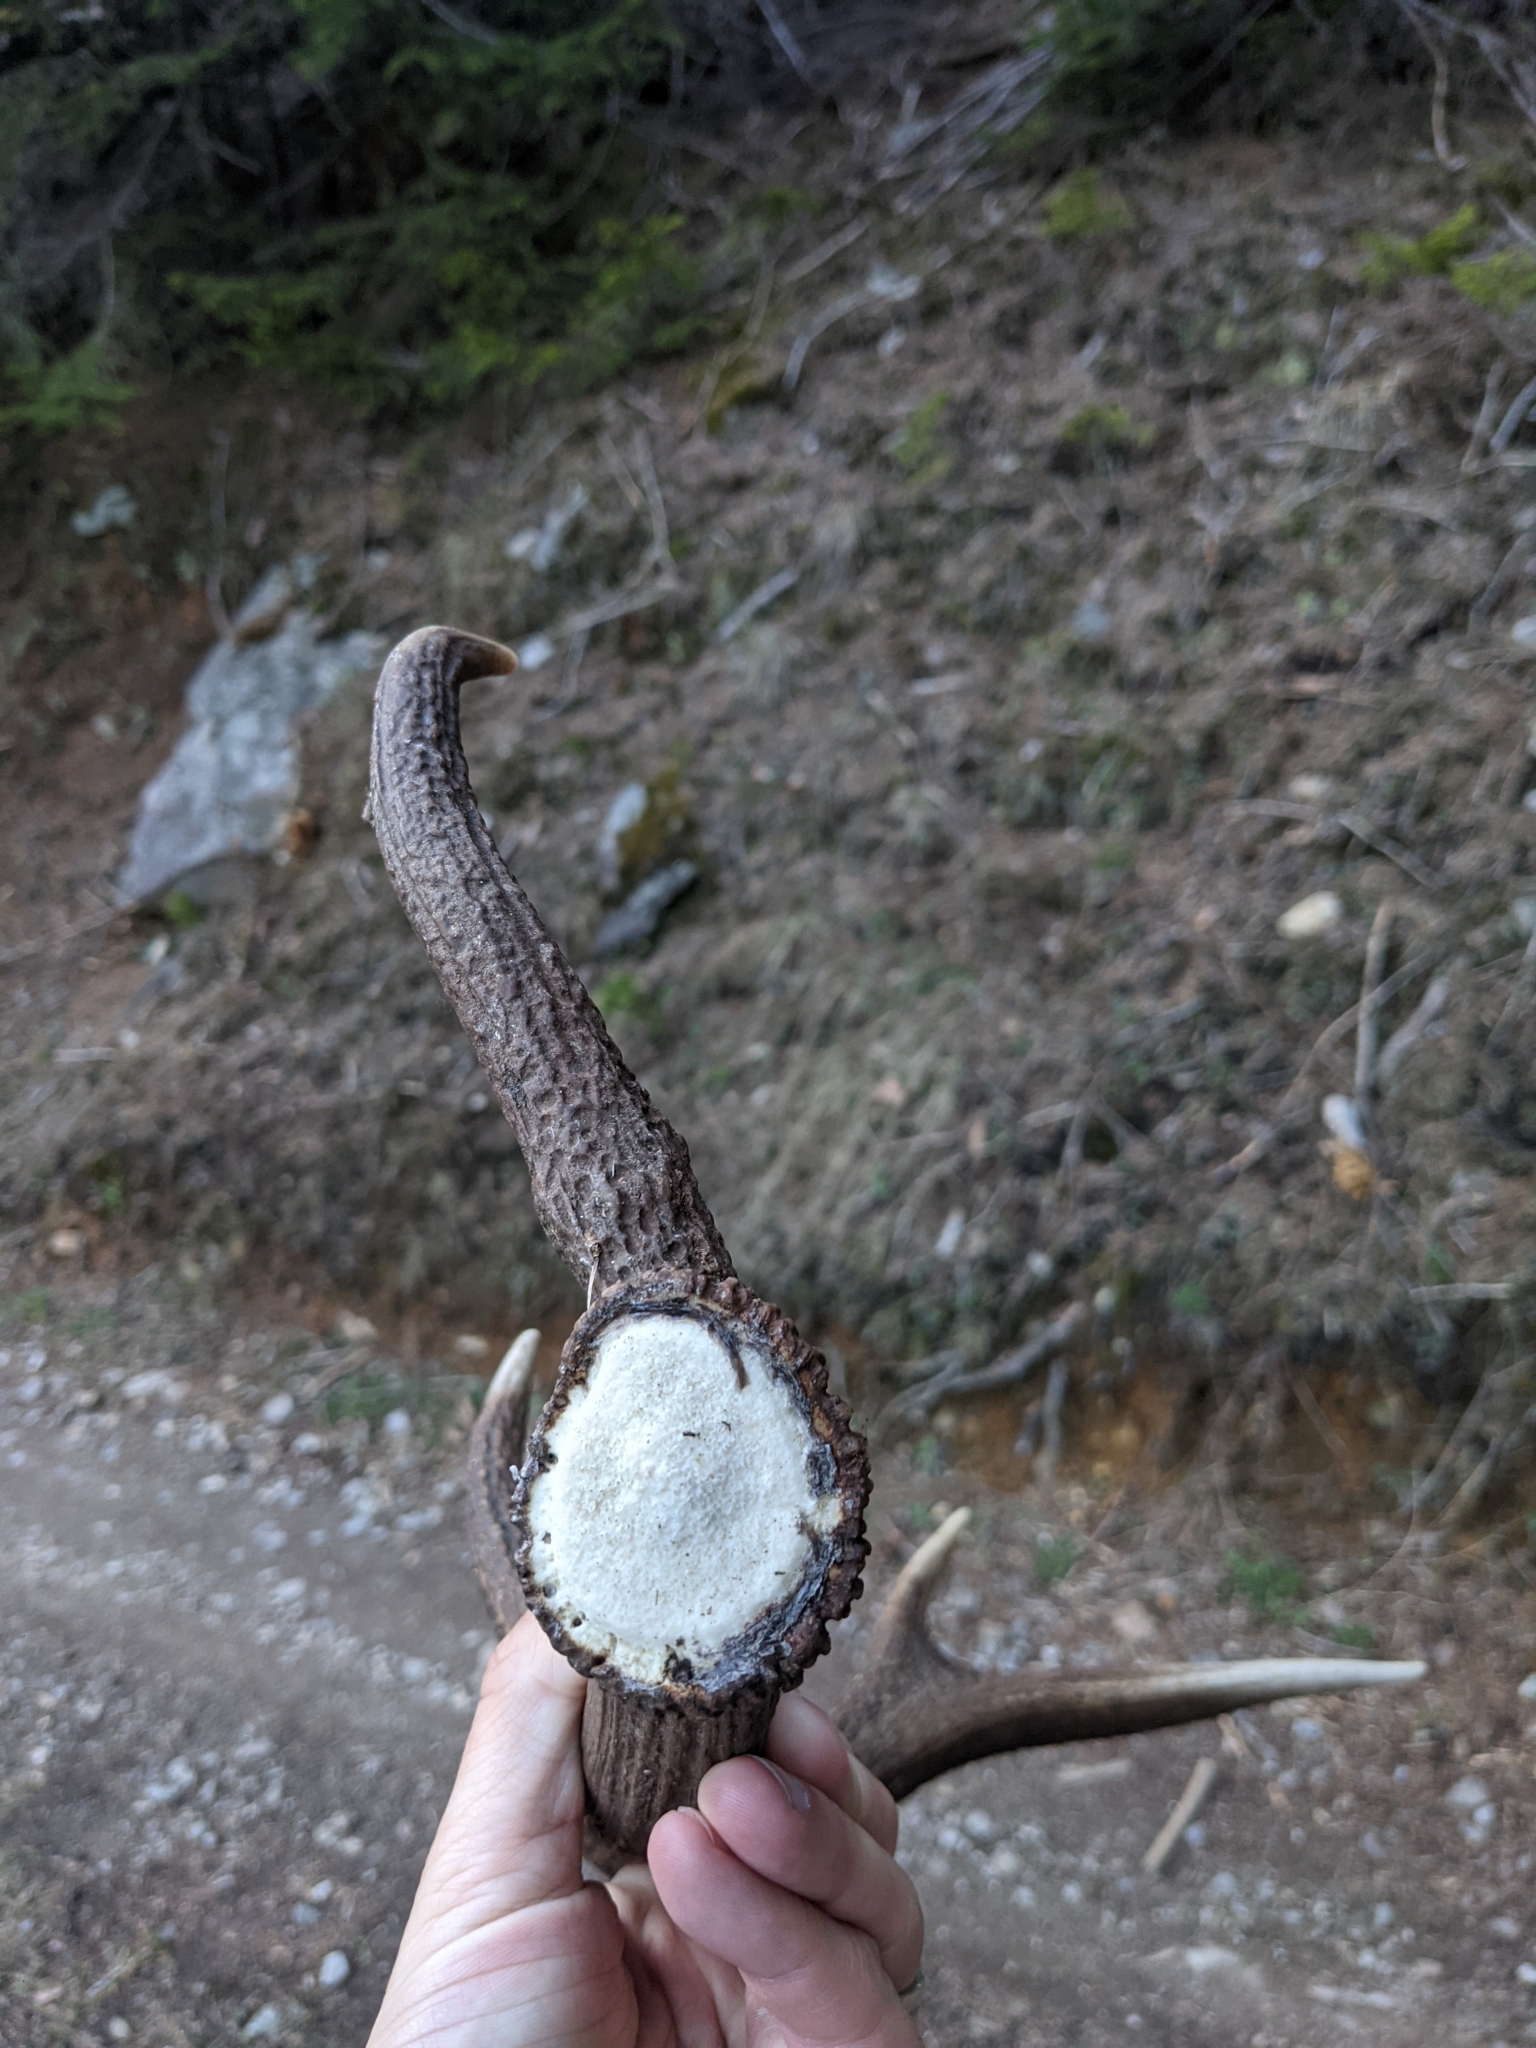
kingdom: Animalia
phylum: Chordata
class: Mammalia
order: Artiodactyla
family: Cervidae
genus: Cervus
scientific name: Cervus elaphus
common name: Red deer
